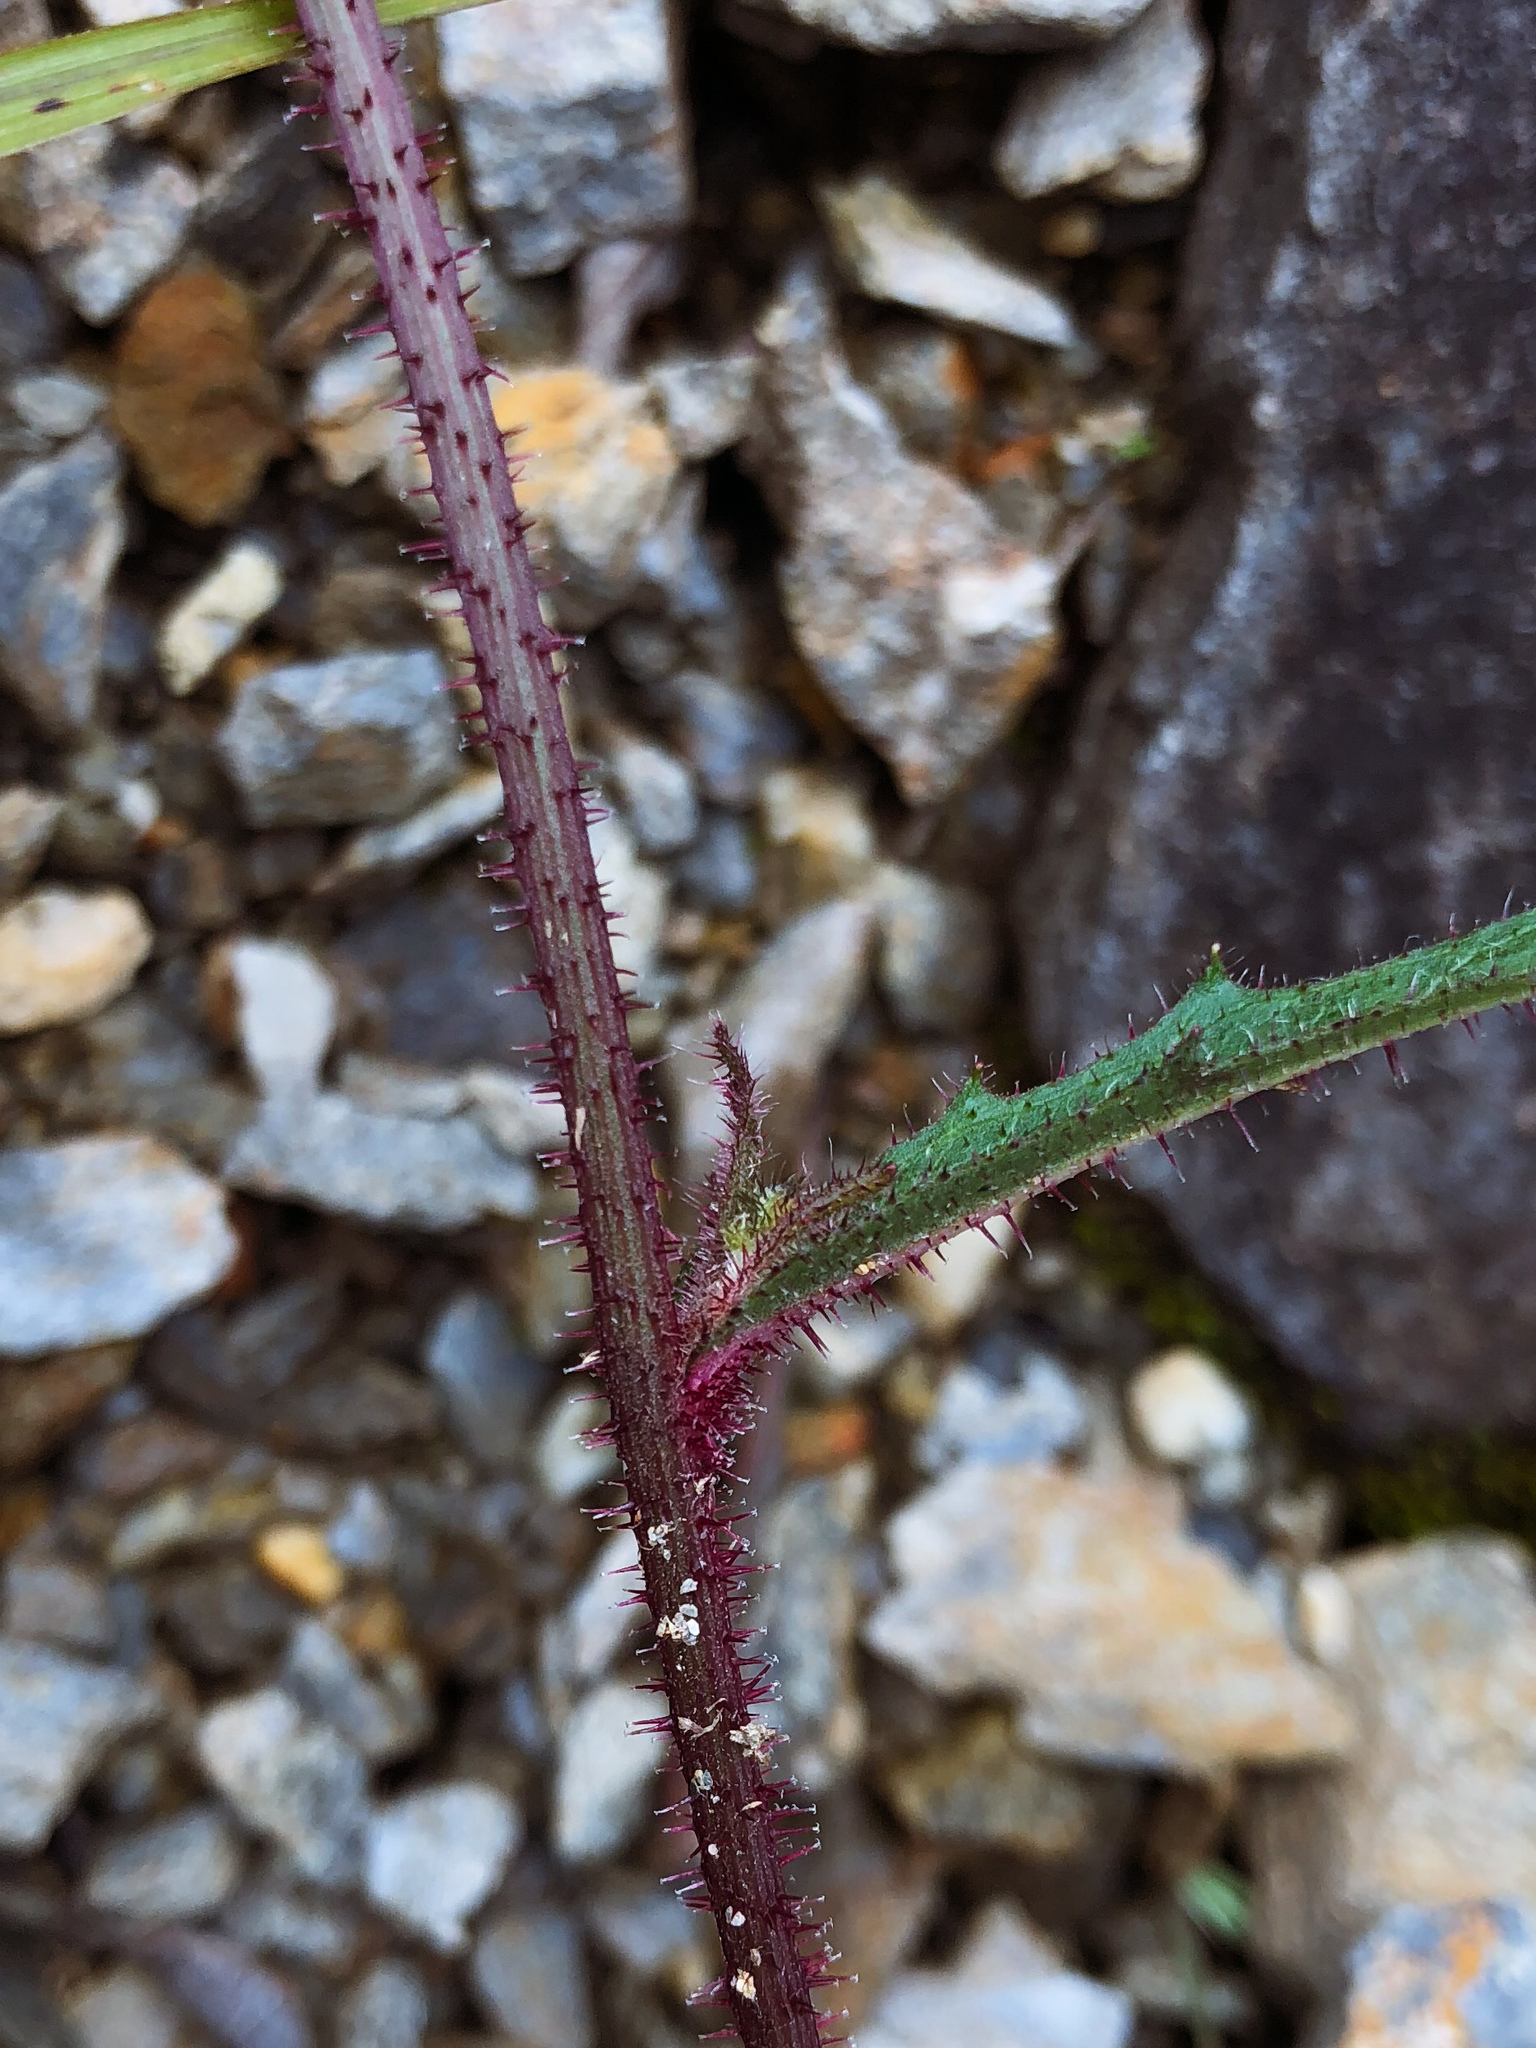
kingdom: Plantae
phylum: Tracheophyta
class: Magnoliopsida
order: Asterales
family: Asteraceae
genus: Picris
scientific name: Picris angustifolia
